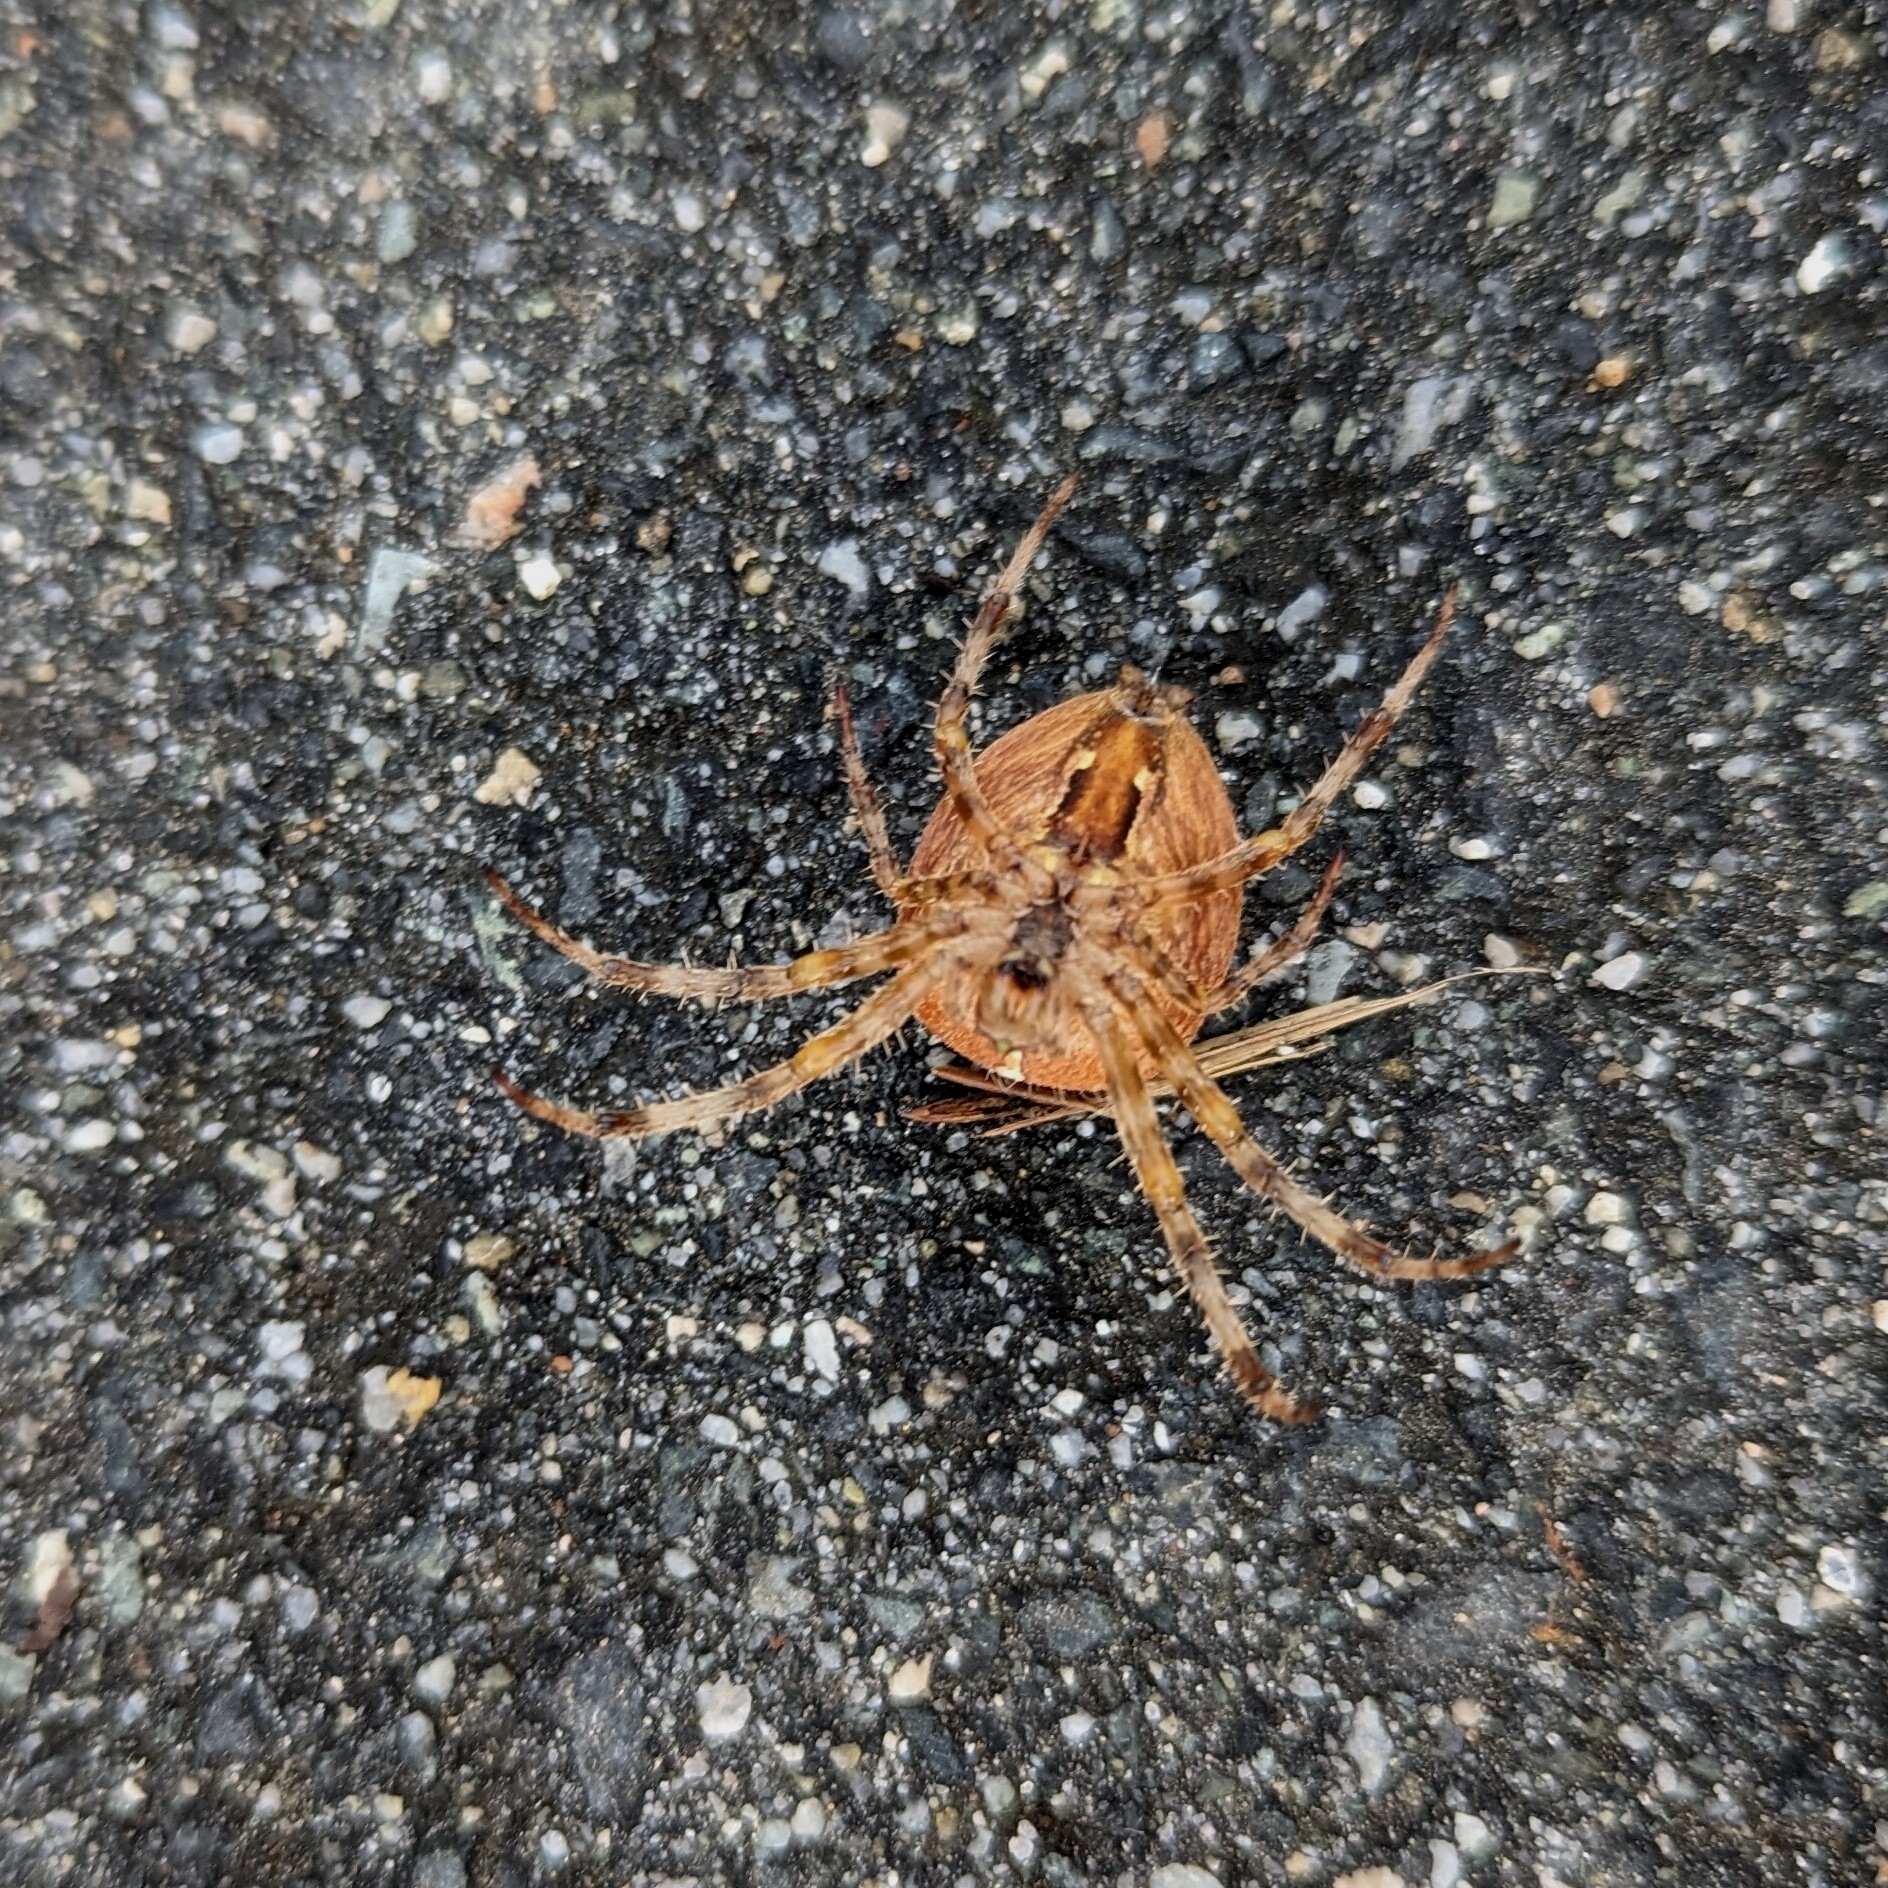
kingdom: Animalia
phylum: Arthropoda
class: Arachnida
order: Araneae
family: Araneidae
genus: Araneus
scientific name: Araneus diadematus
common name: Cross orbweaver
